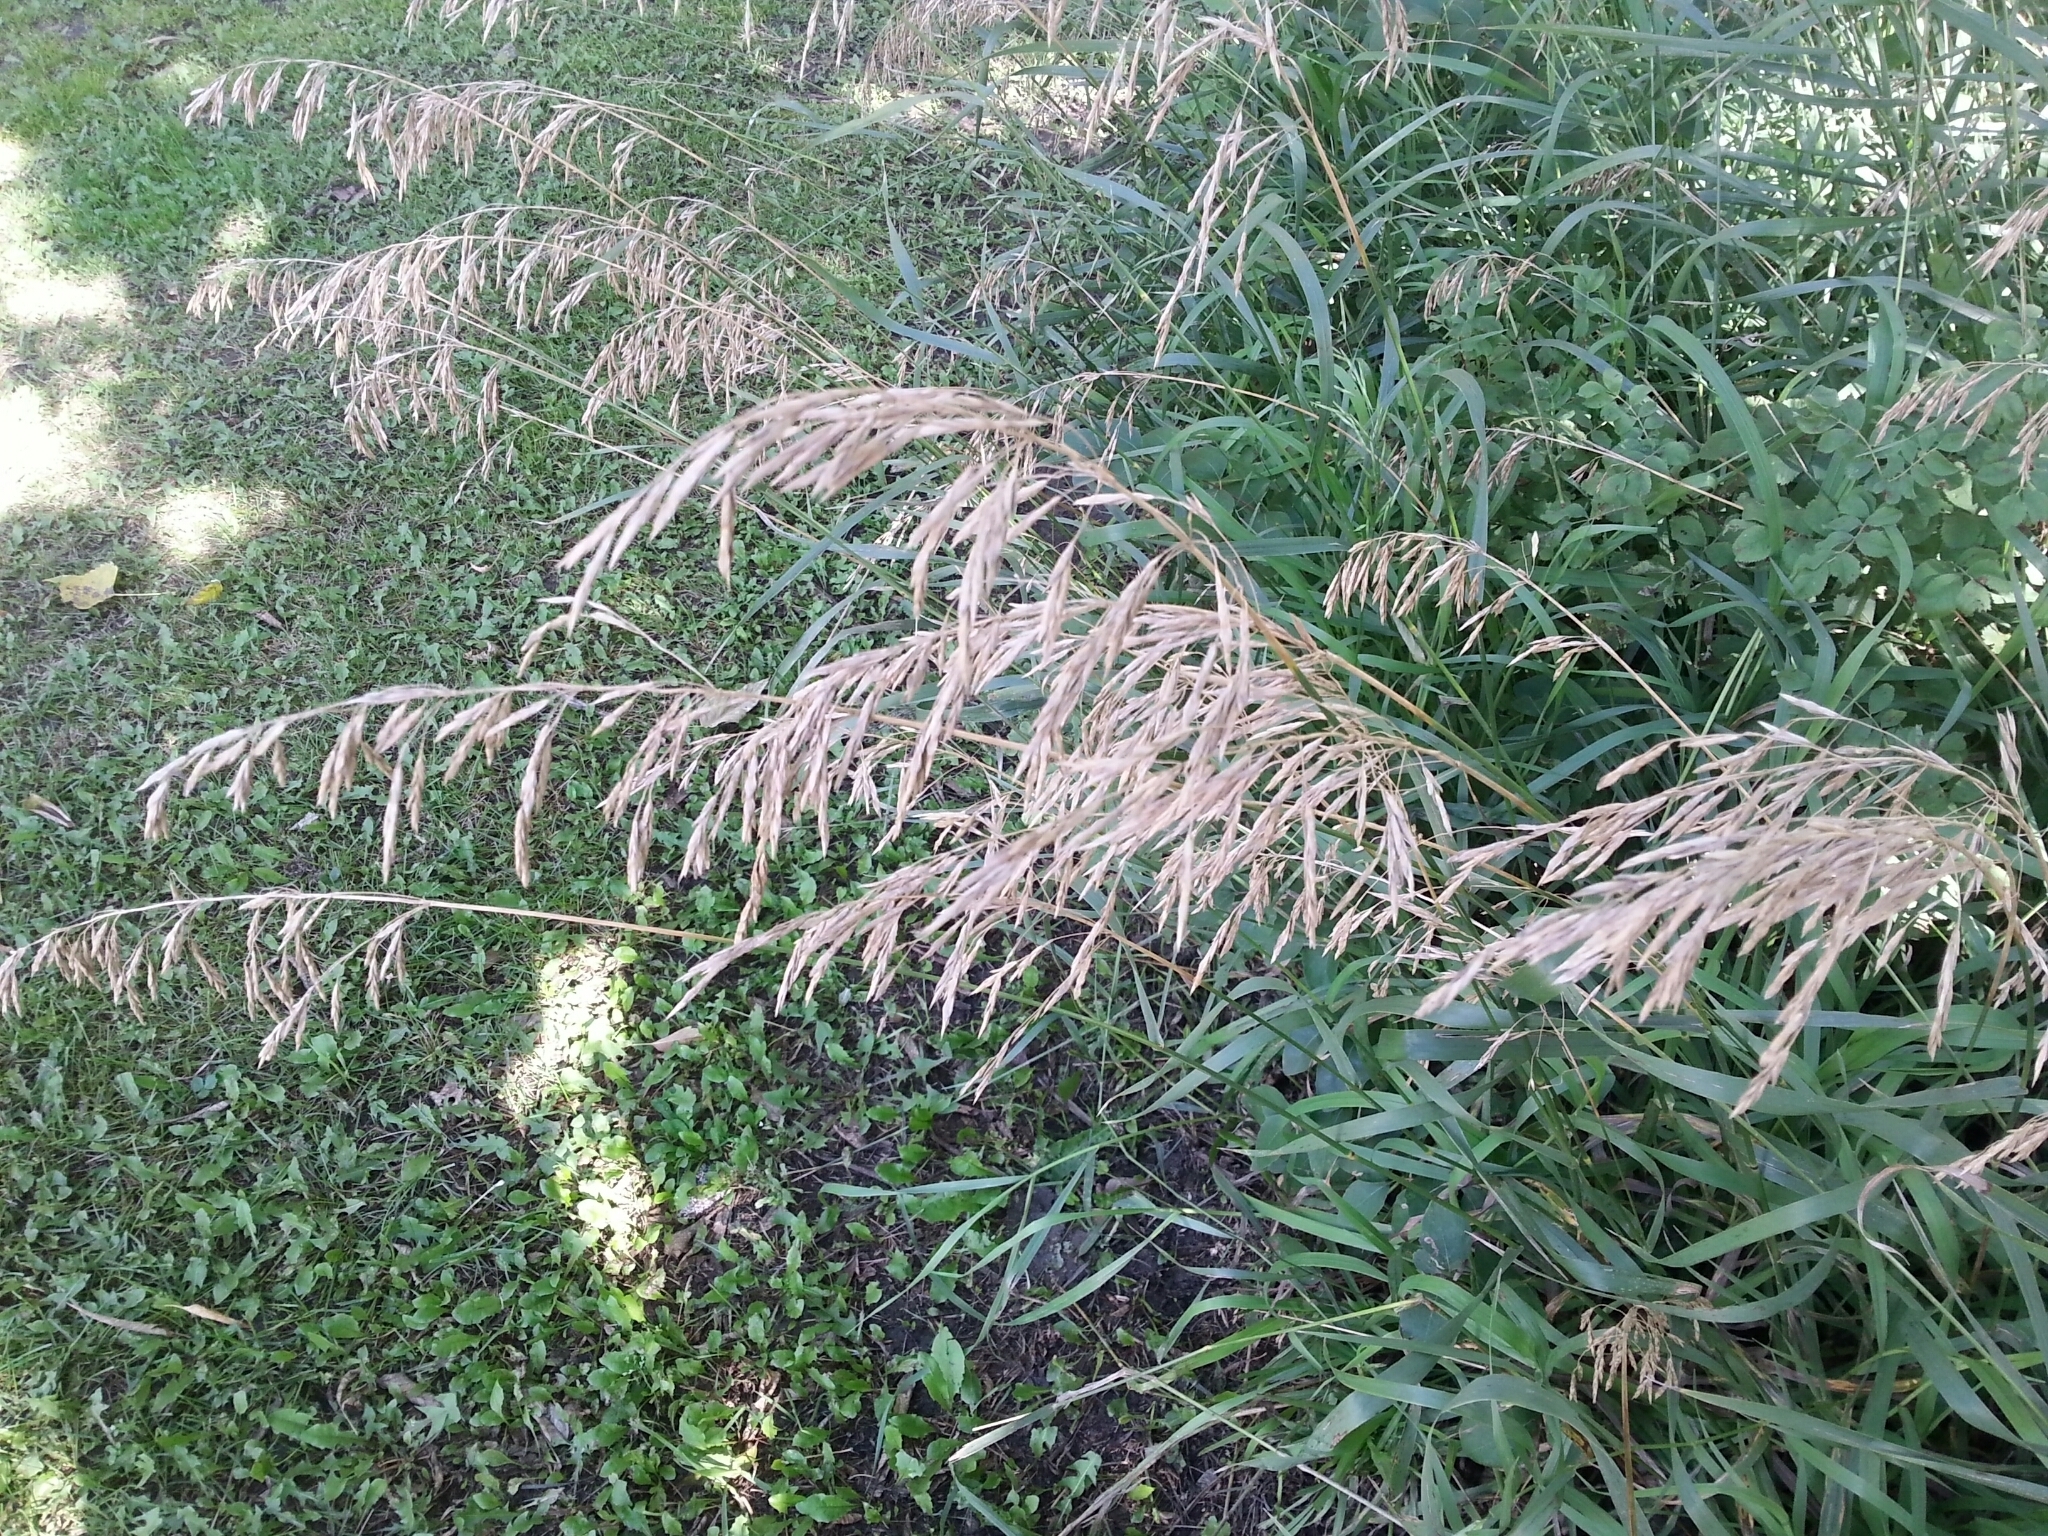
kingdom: Plantae
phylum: Tracheophyta
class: Liliopsida
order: Poales
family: Poaceae
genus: Bromus
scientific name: Bromus inermis
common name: Smooth brome
